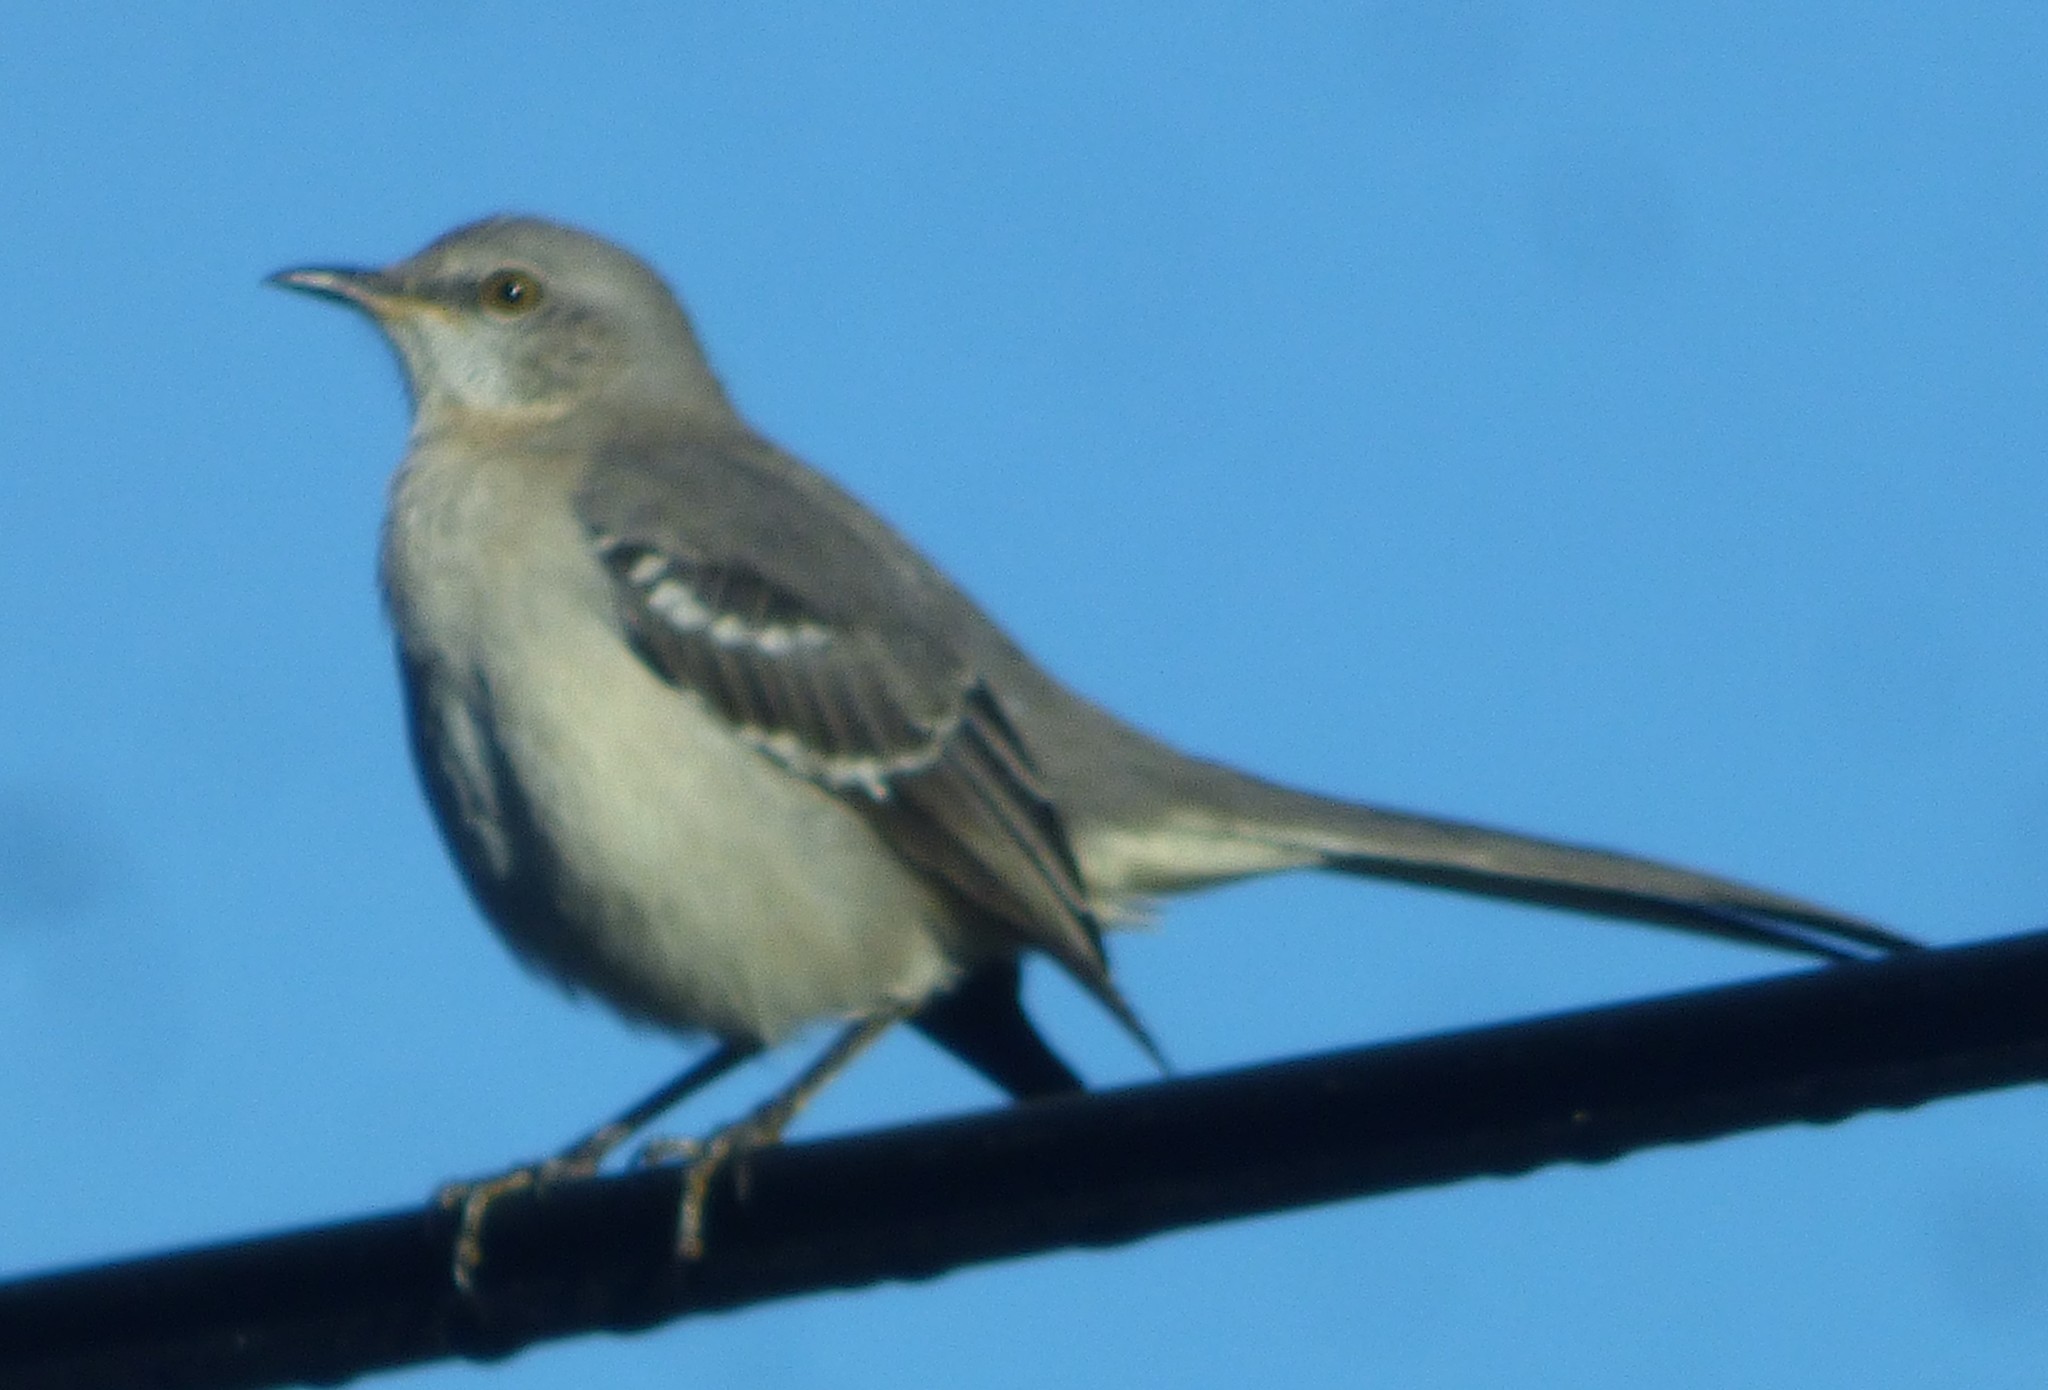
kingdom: Animalia
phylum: Chordata
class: Aves
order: Passeriformes
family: Mimidae
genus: Mimus
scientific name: Mimus polyglottos
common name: Northern mockingbird
